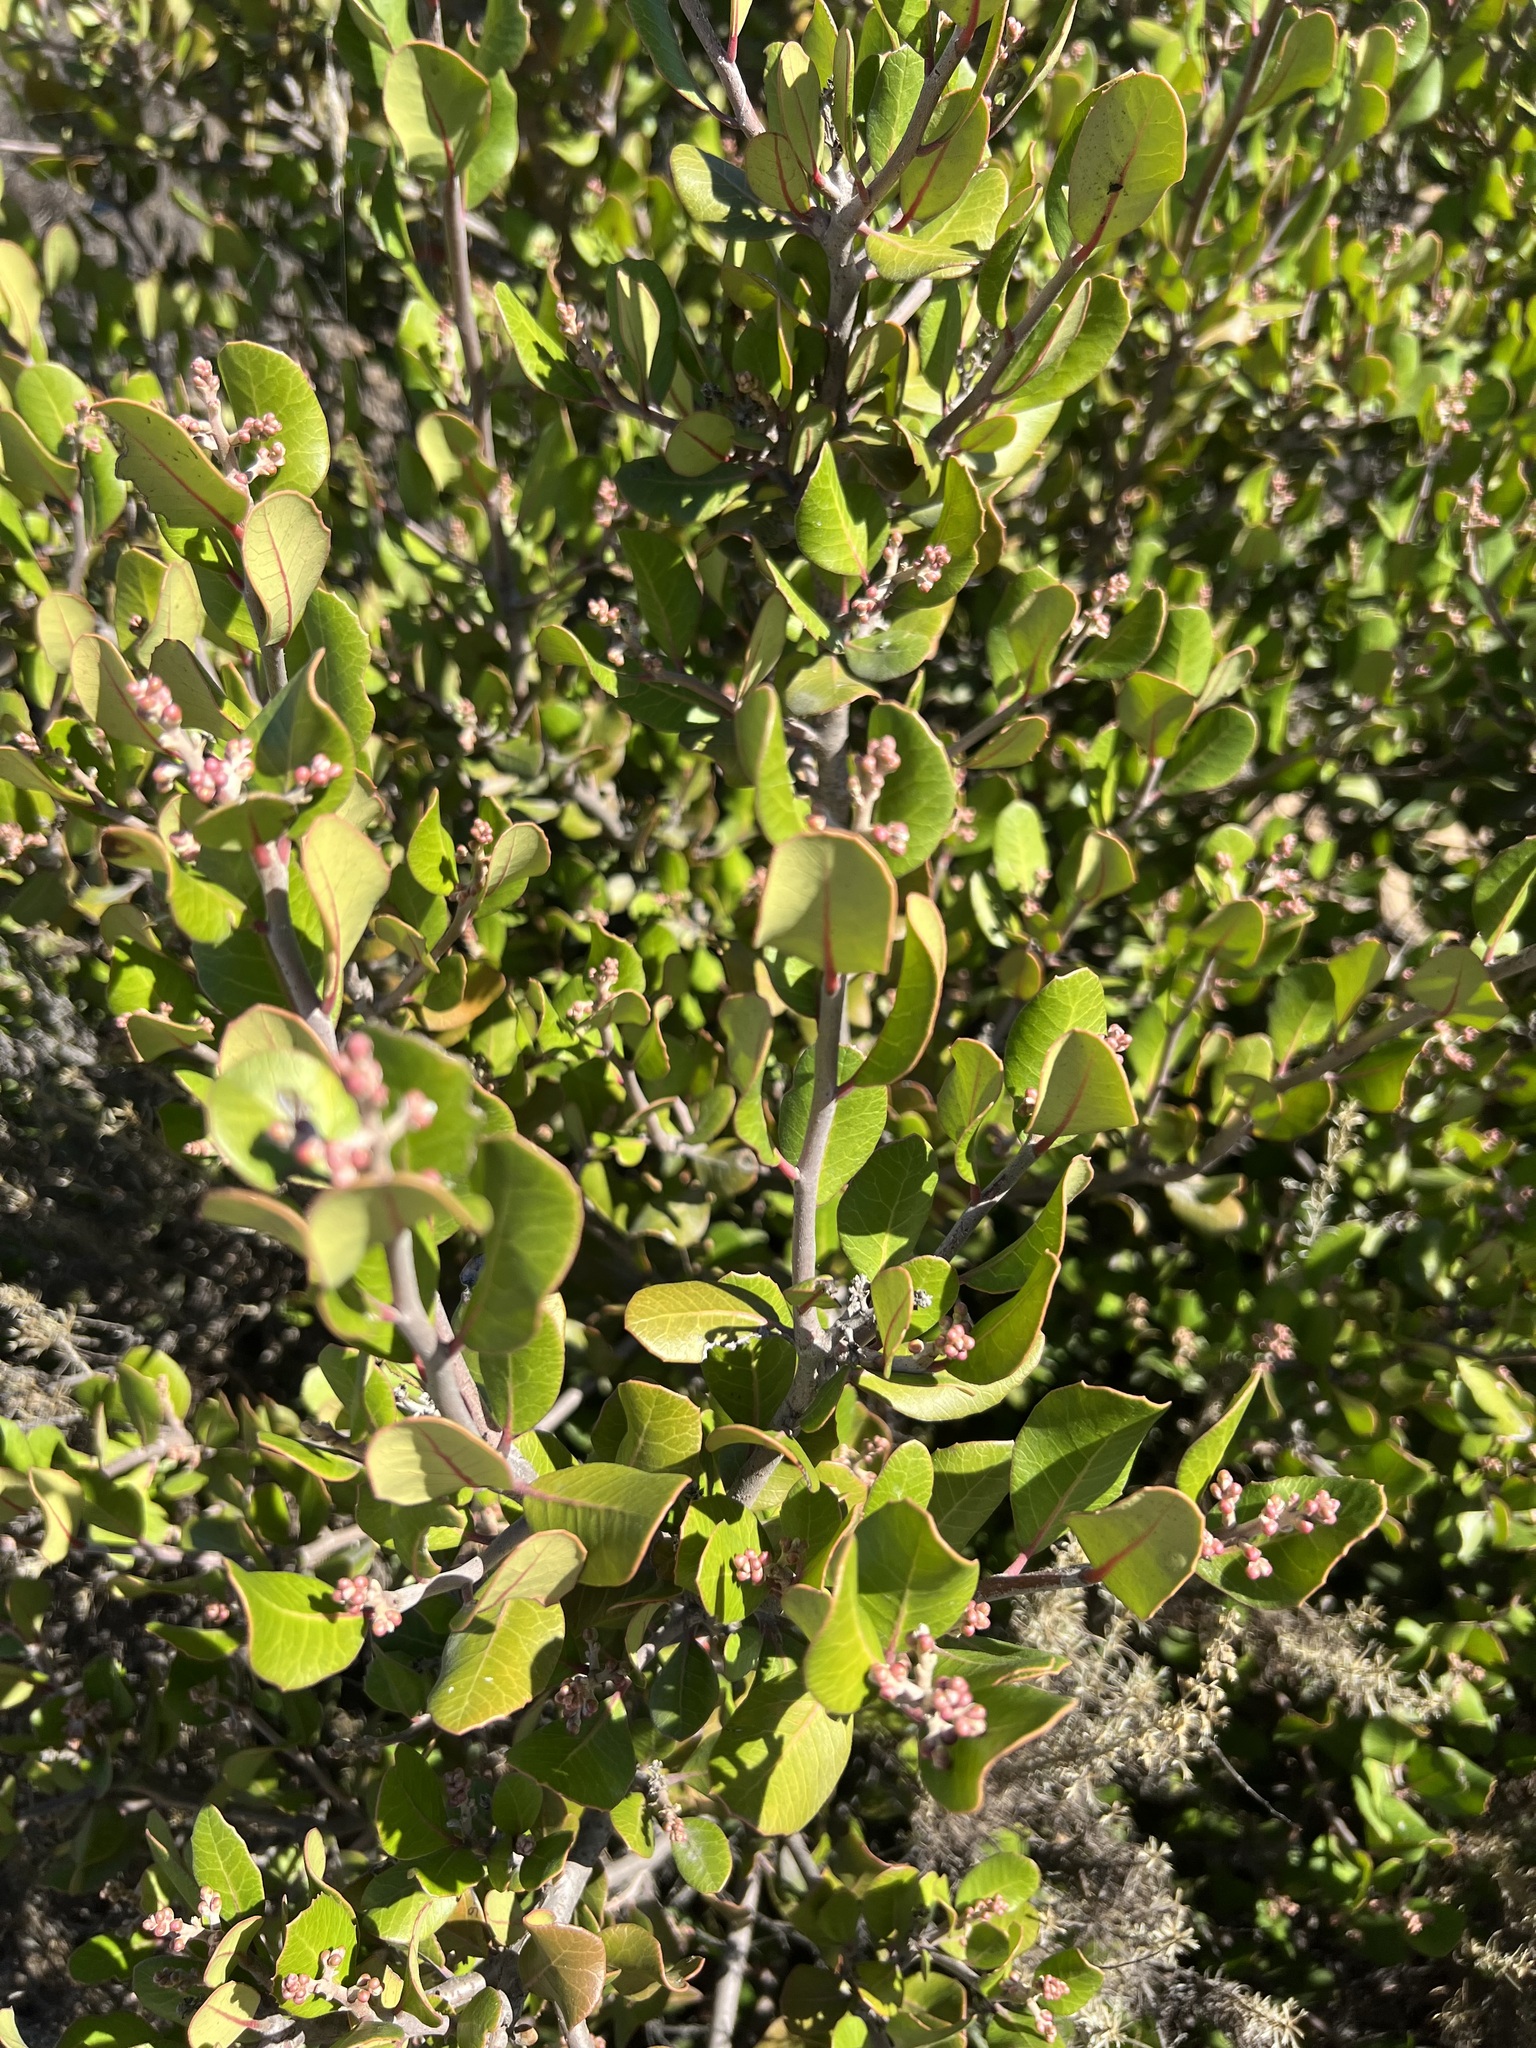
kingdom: Plantae
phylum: Tracheophyta
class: Magnoliopsida
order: Sapindales
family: Anacardiaceae
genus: Rhus
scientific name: Rhus integrifolia
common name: Lemonade sumac
